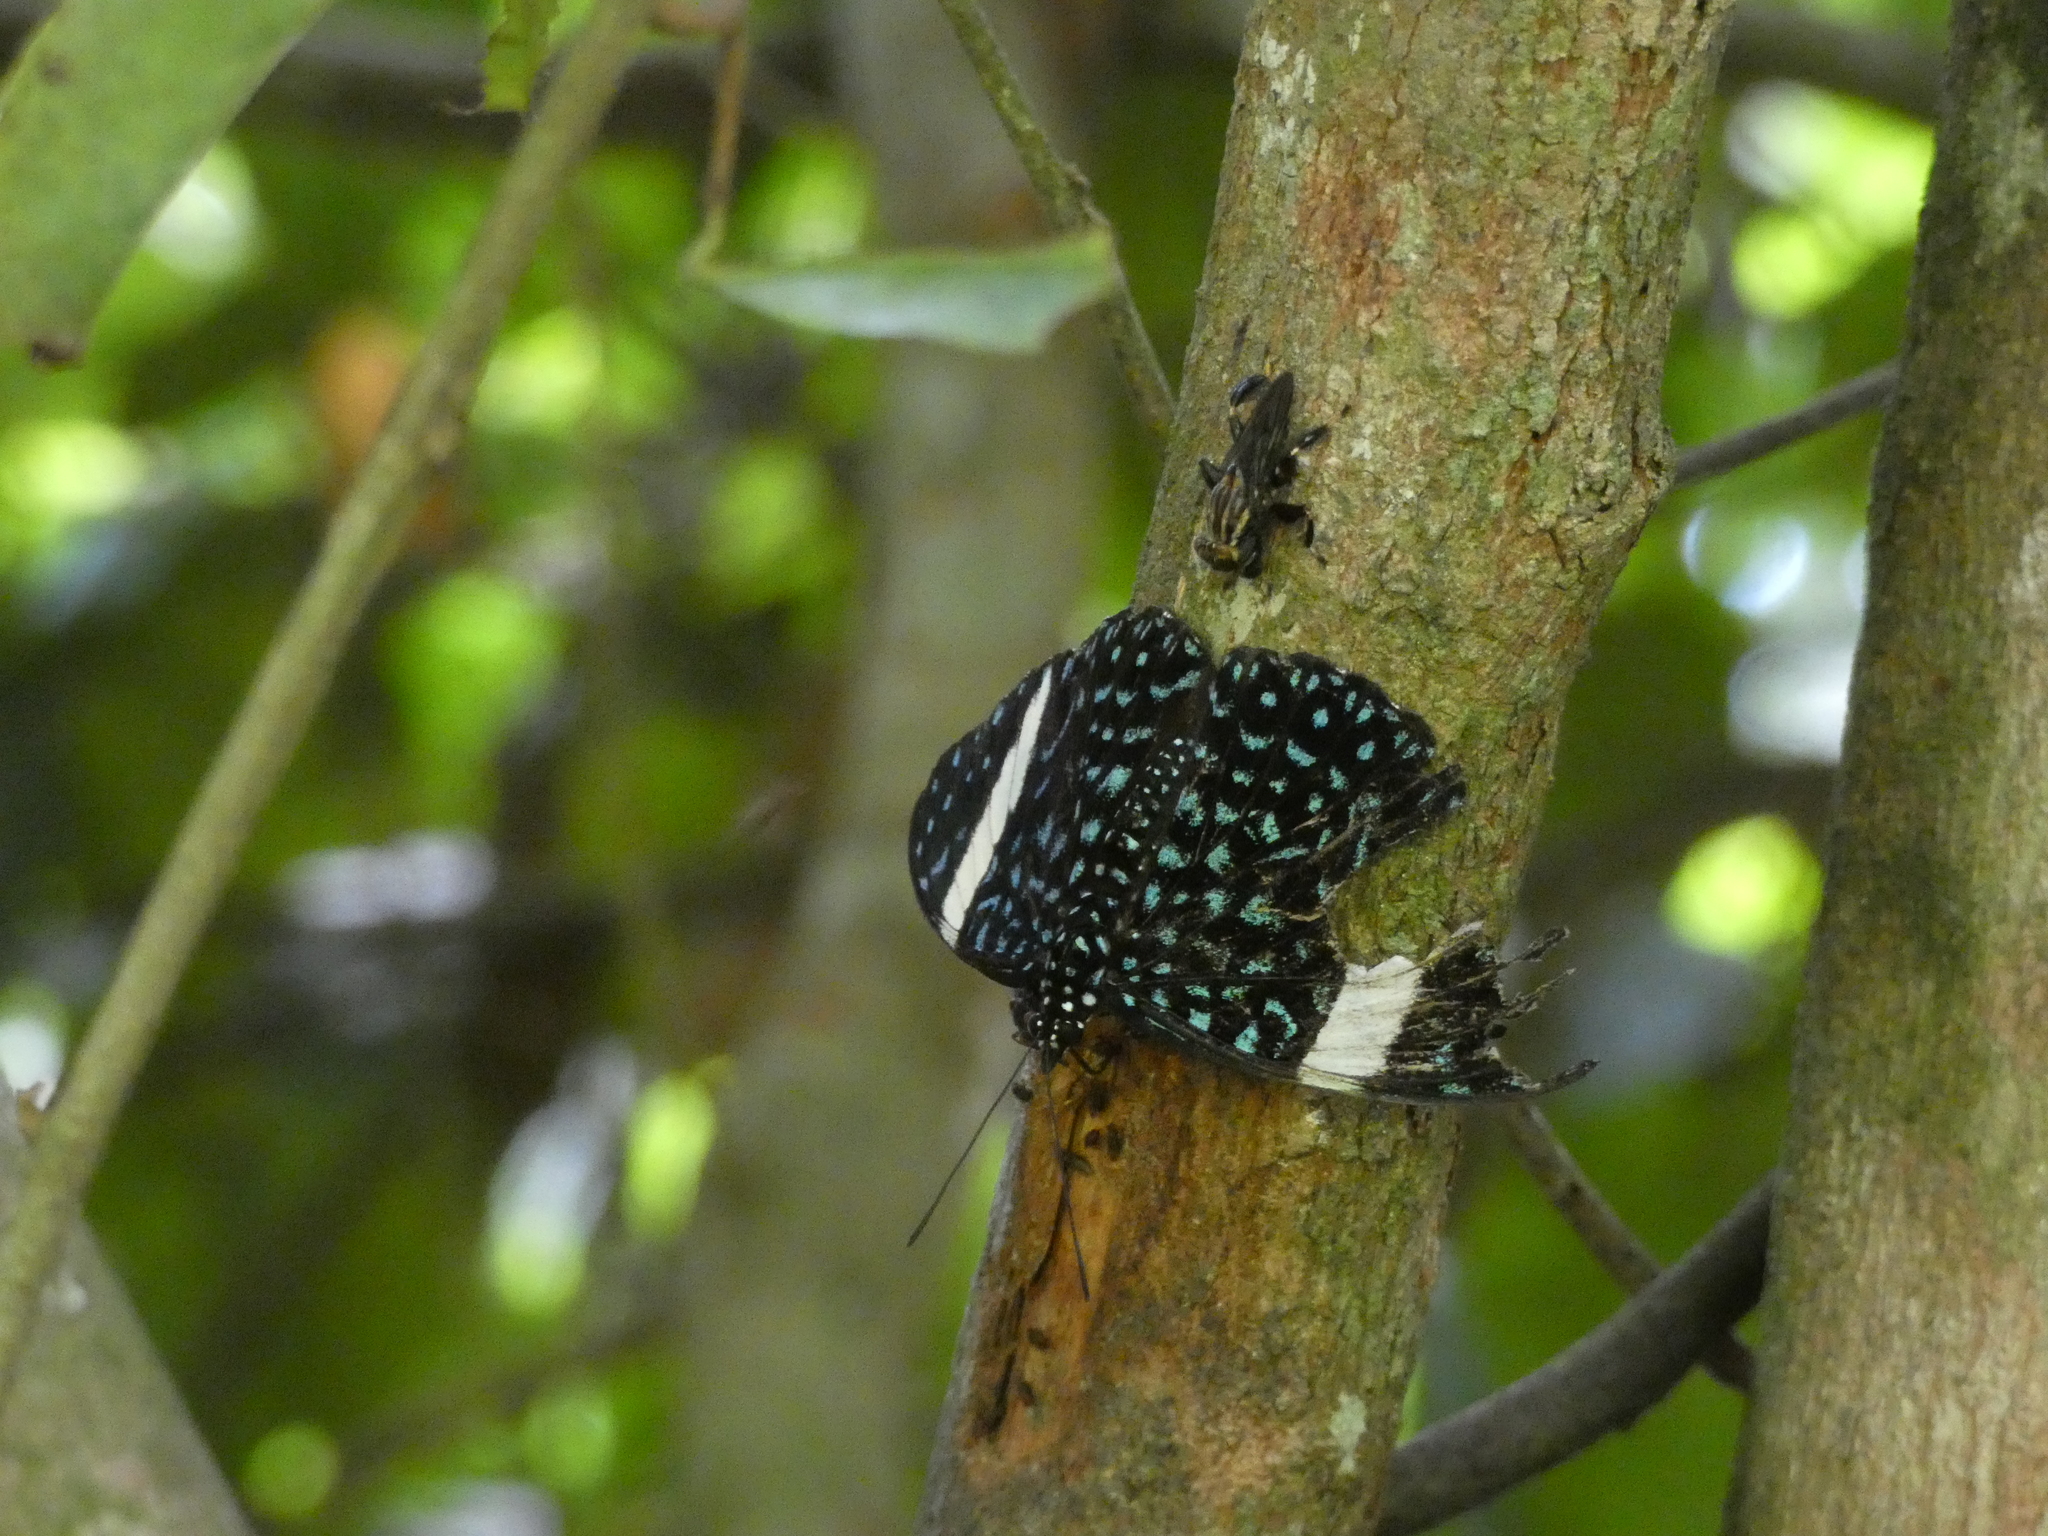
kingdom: Animalia
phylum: Arthropoda
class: Insecta
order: Lepidoptera
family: Nymphalidae
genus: Hamadryas
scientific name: Hamadryas laodamia
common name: Starry night cracker
